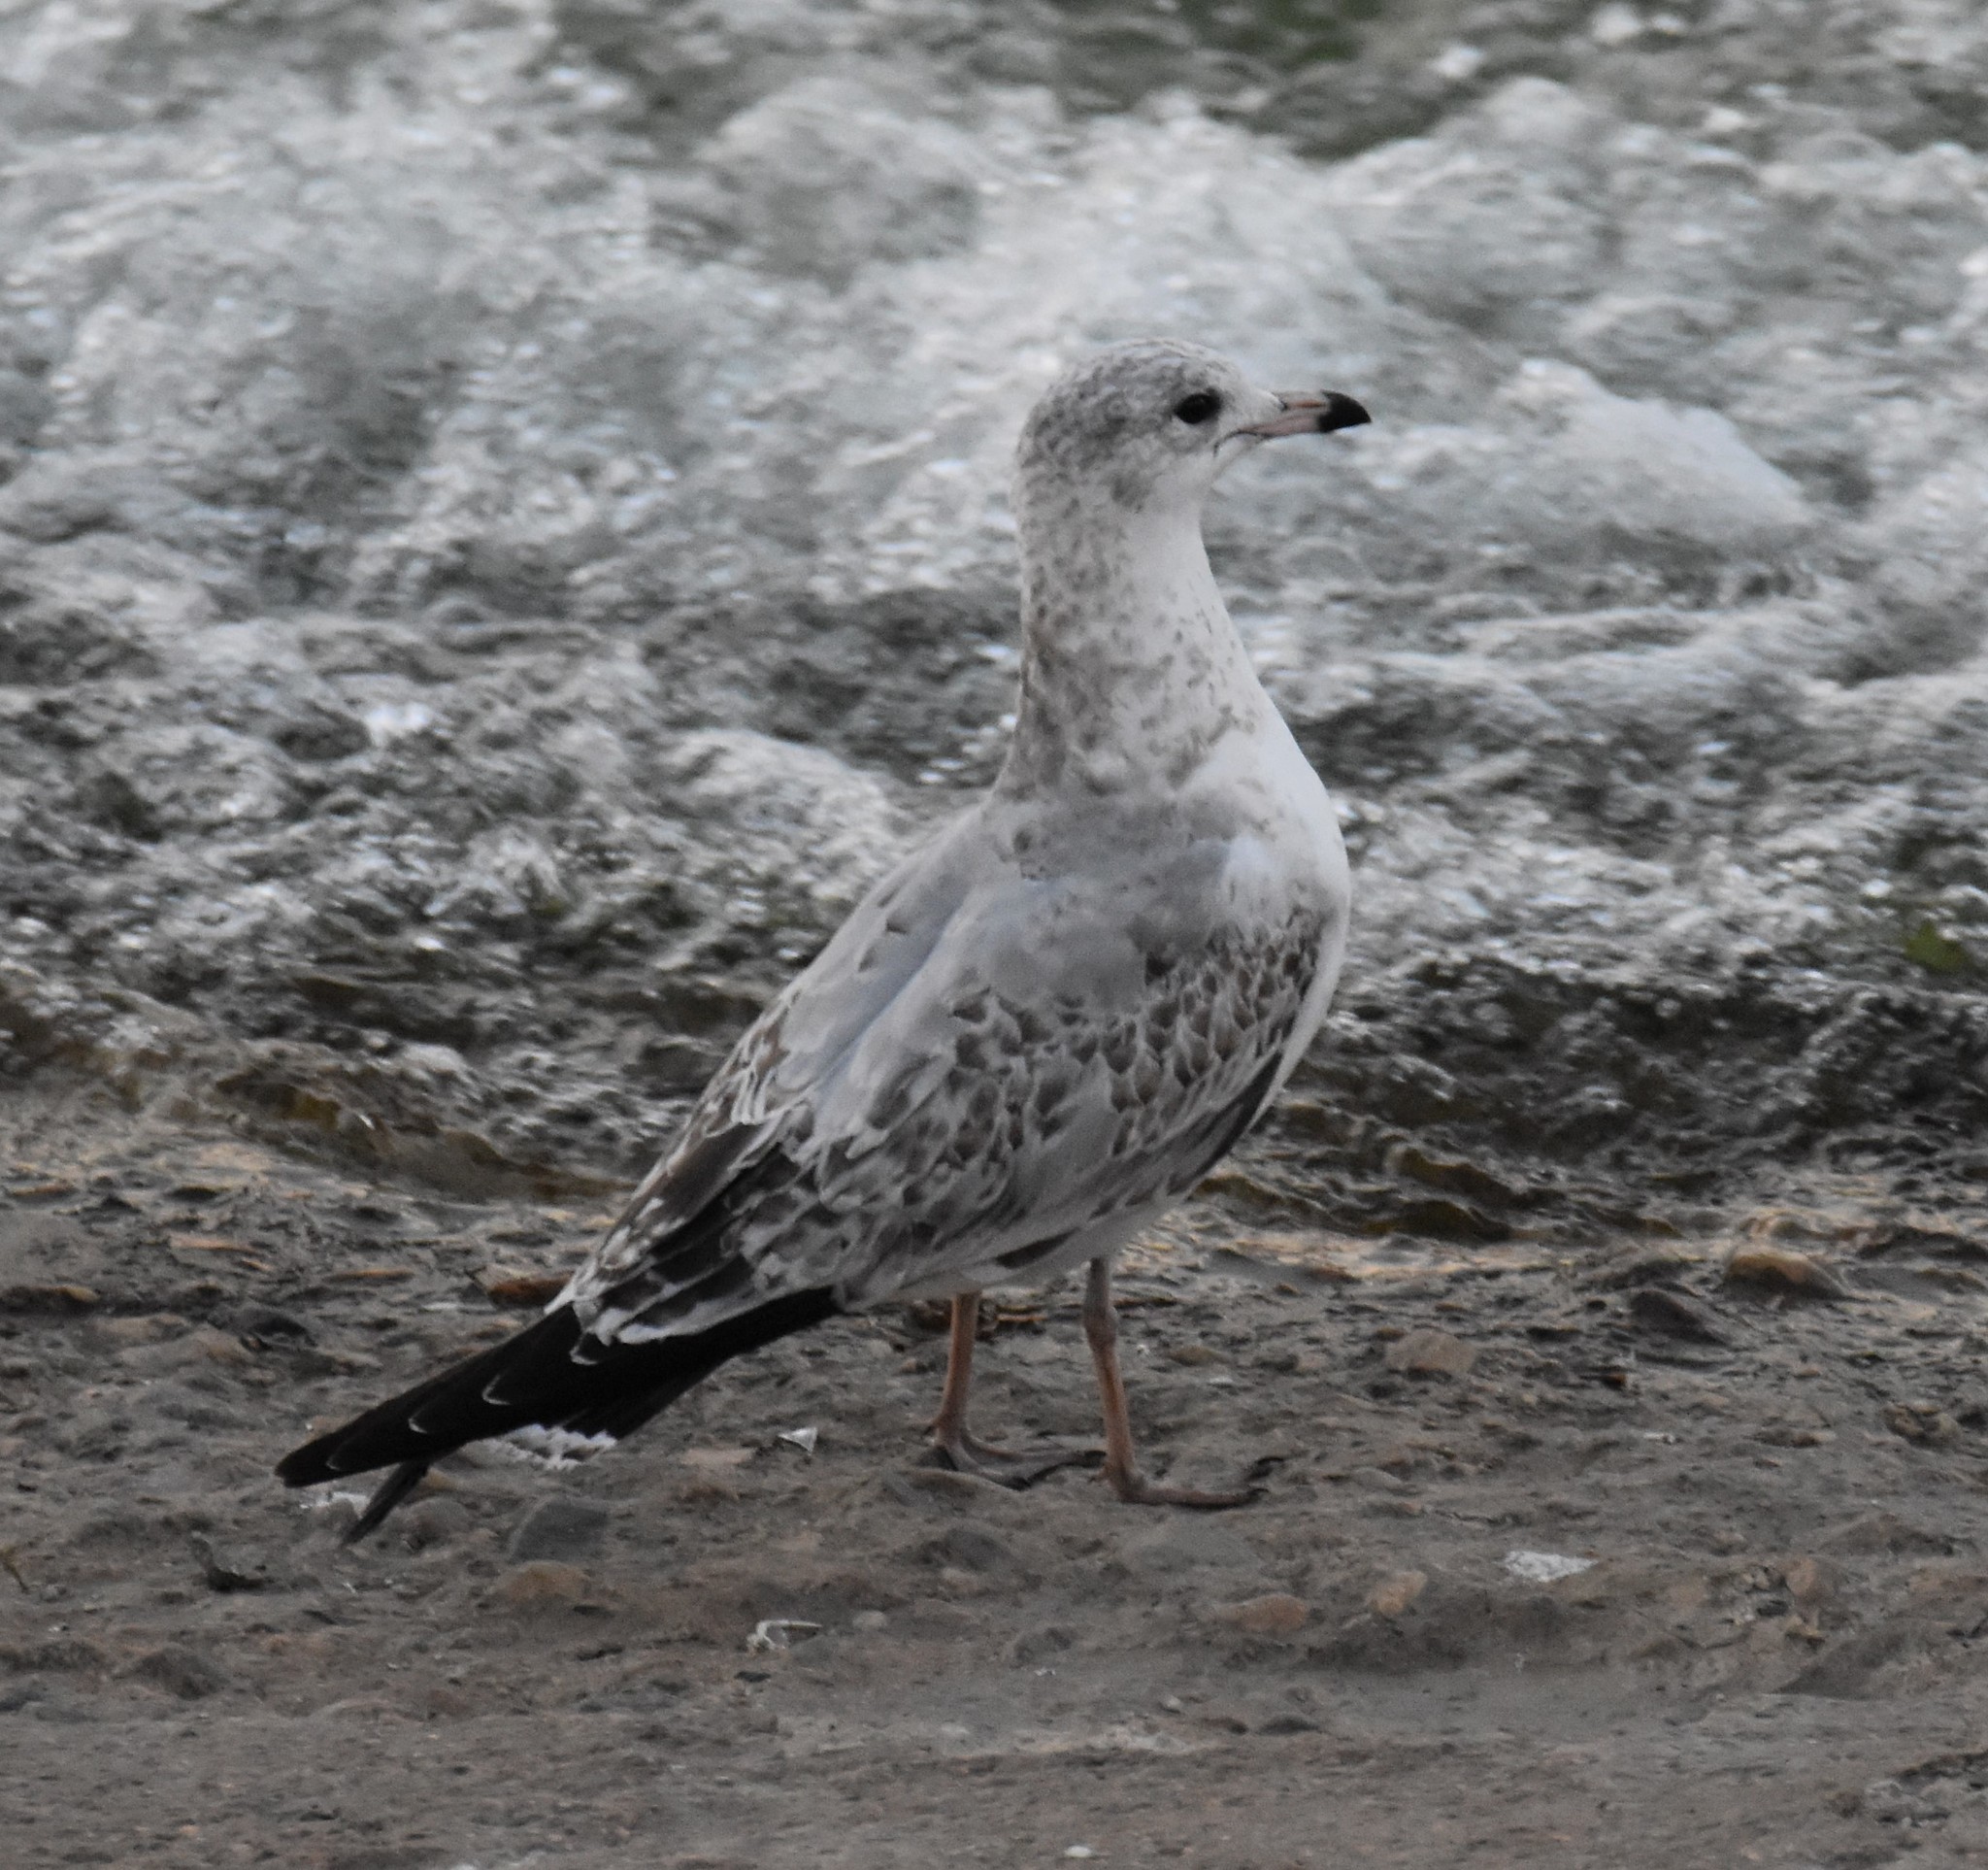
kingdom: Animalia
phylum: Chordata
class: Aves
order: Charadriiformes
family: Laridae
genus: Larus
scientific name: Larus delawarensis
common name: Ring-billed gull
